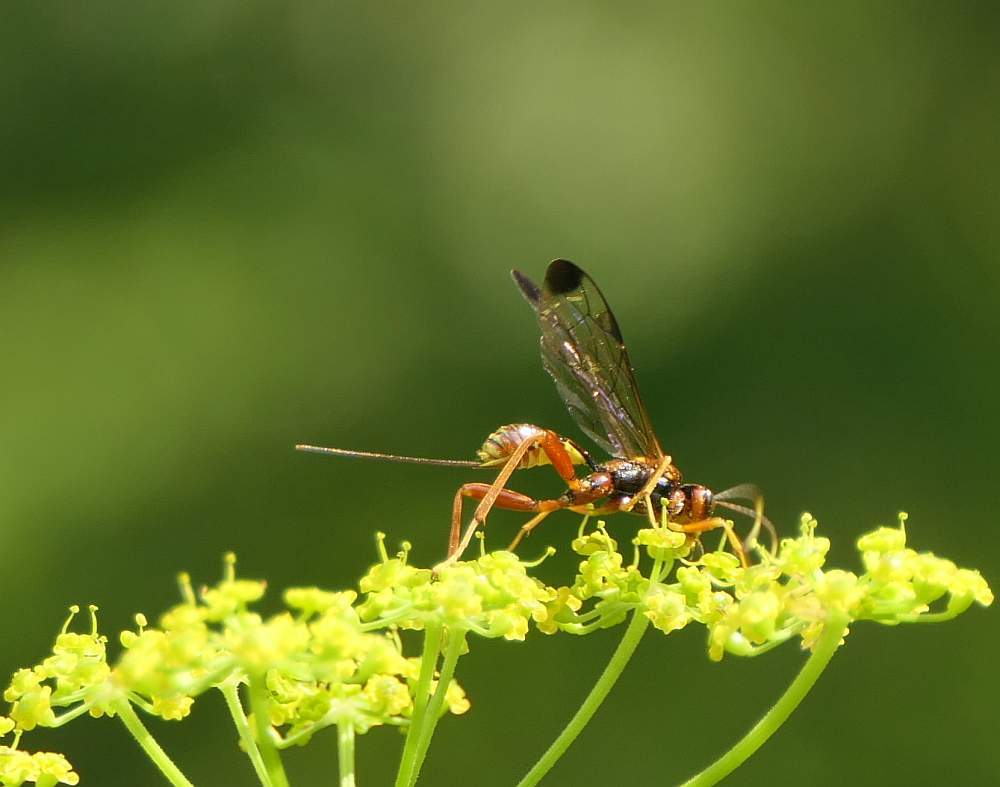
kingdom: Animalia
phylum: Arthropoda
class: Insecta
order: Hymenoptera
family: Ichneumonidae
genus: Spilopteron
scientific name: Spilopteron vicinum
